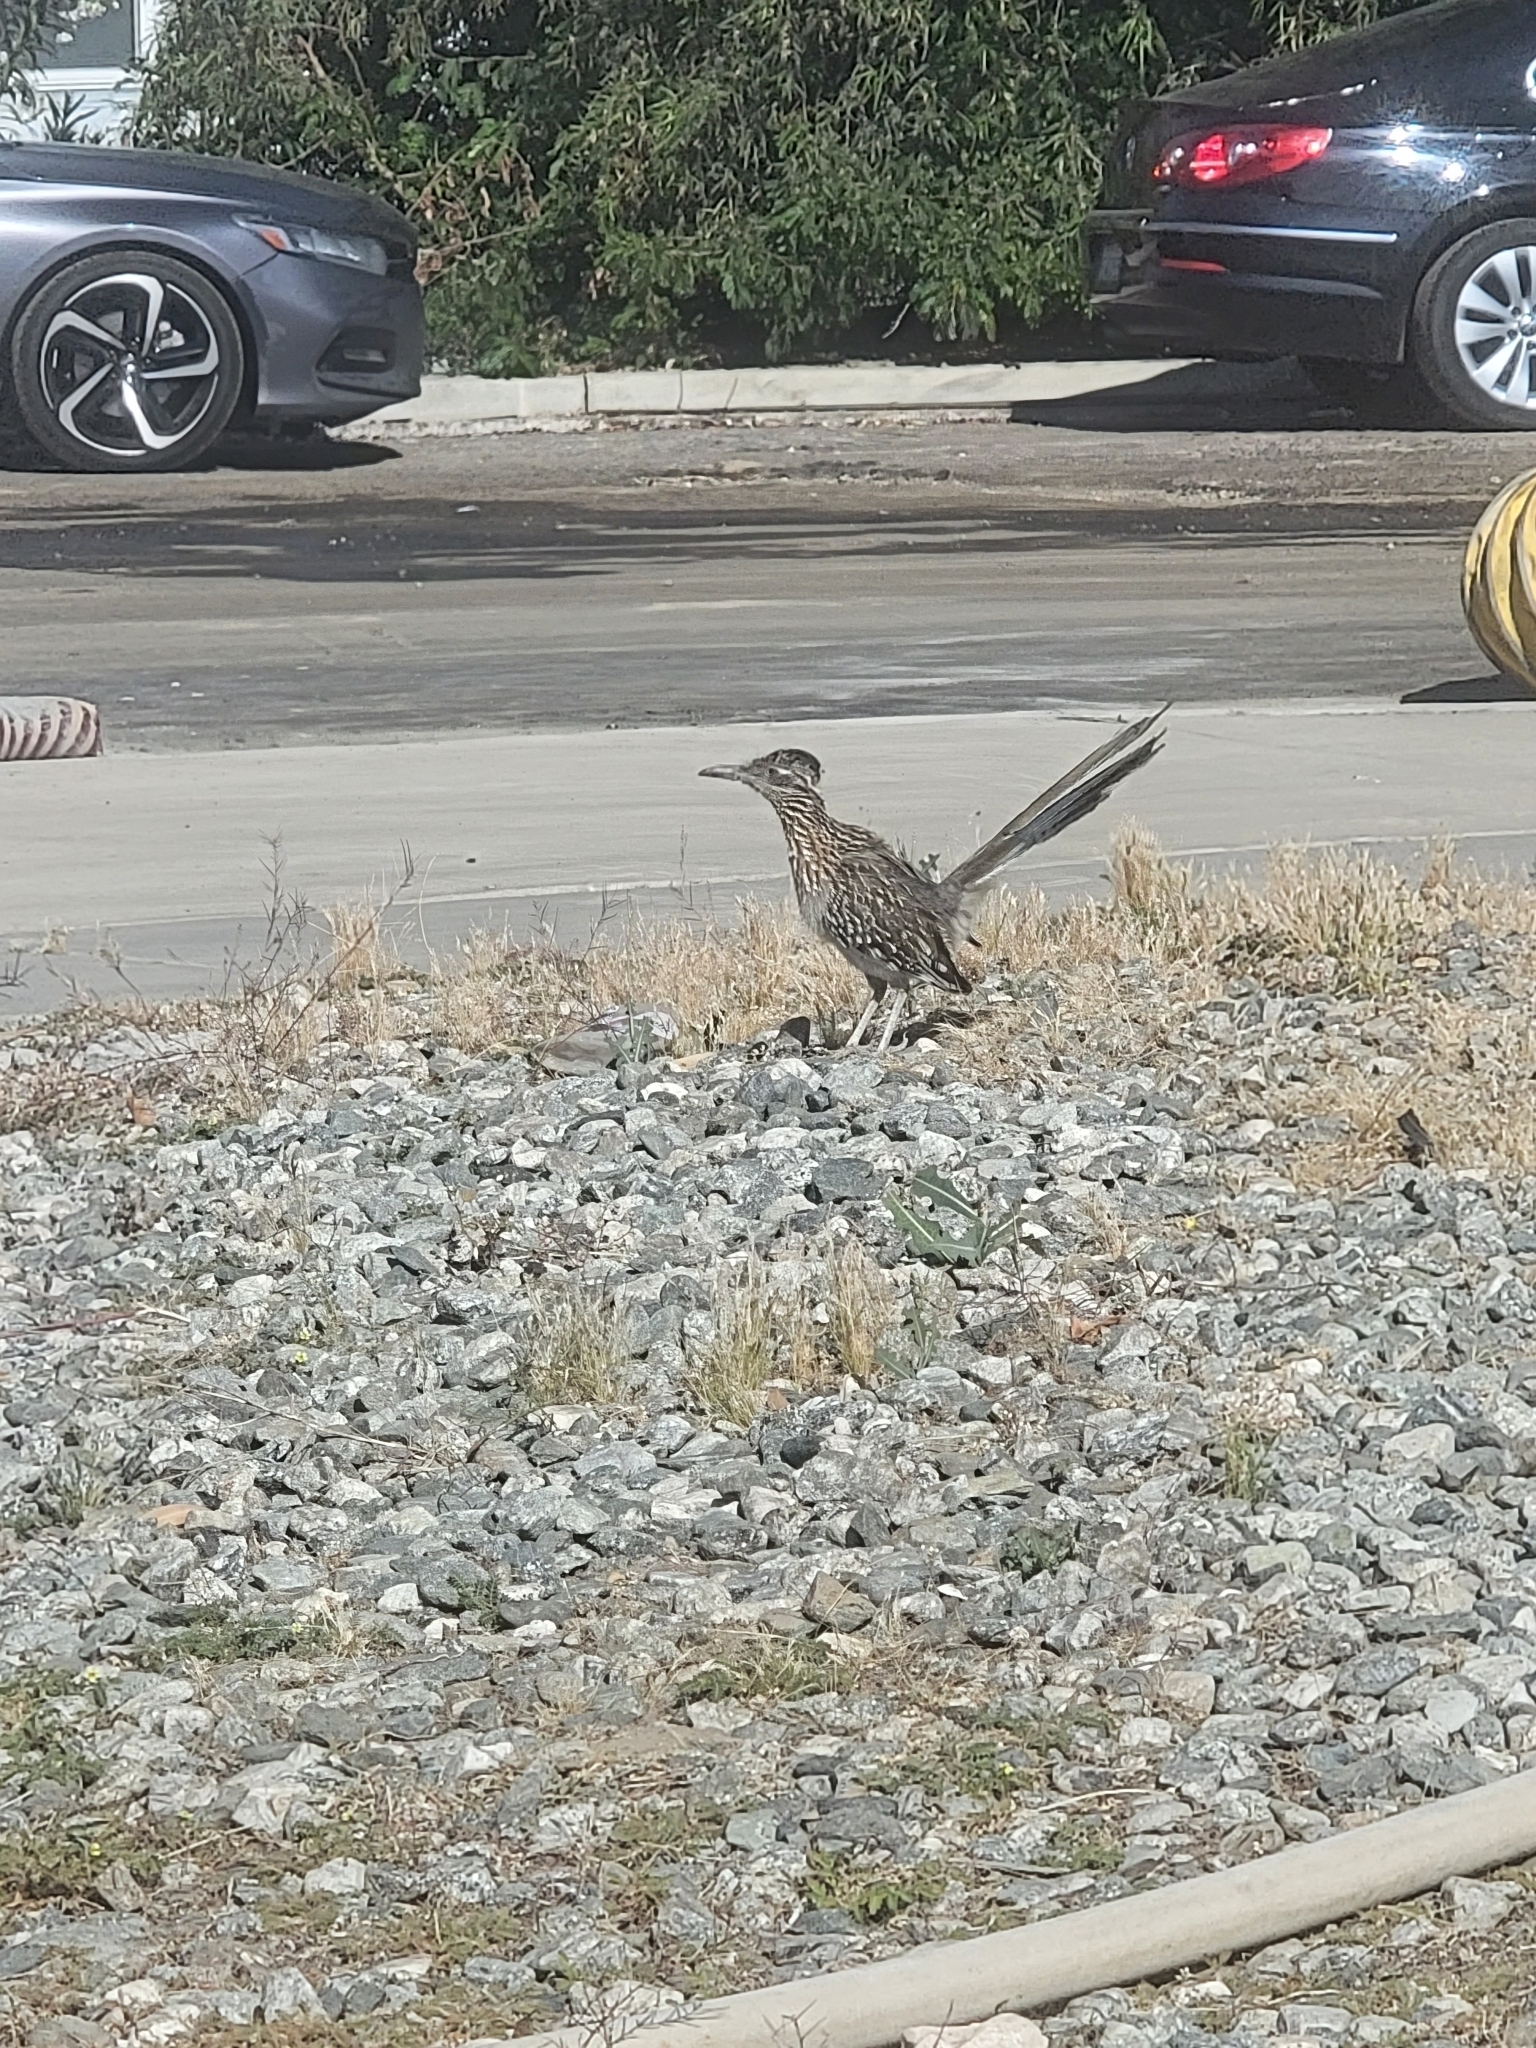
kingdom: Animalia
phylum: Chordata
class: Aves
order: Cuculiformes
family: Cuculidae
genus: Geococcyx
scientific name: Geococcyx californianus
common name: Greater roadrunner
